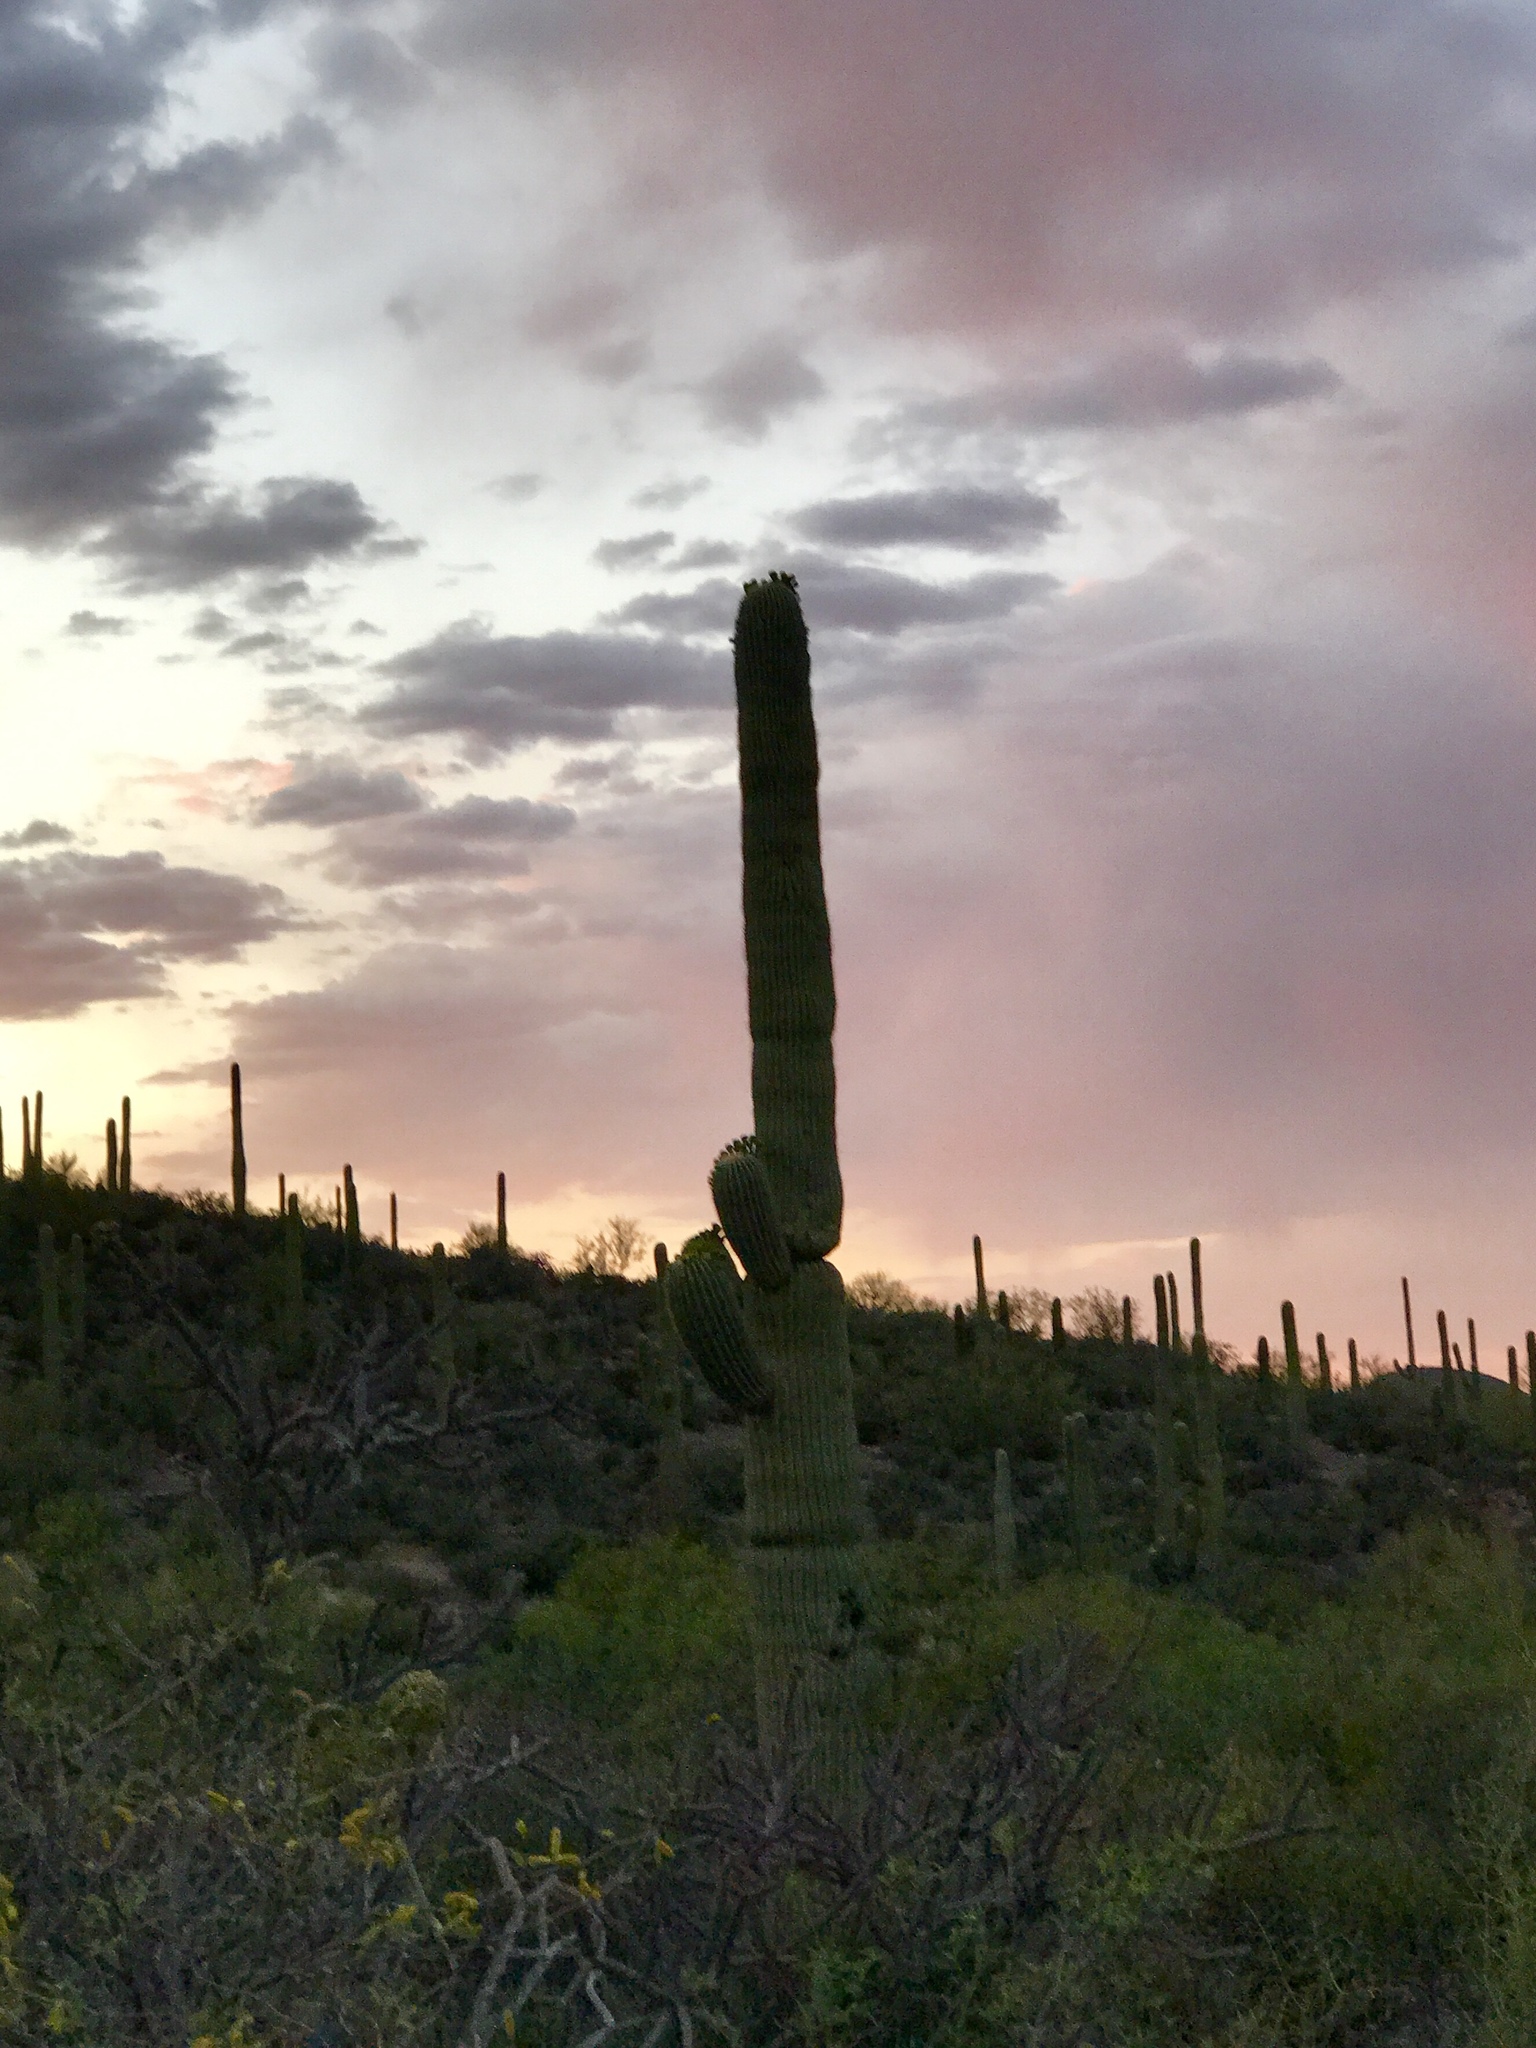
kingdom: Plantae
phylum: Tracheophyta
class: Magnoliopsida
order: Caryophyllales
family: Cactaceae
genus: Carnegiea
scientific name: Carnegiea gigantea
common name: Saguaro
